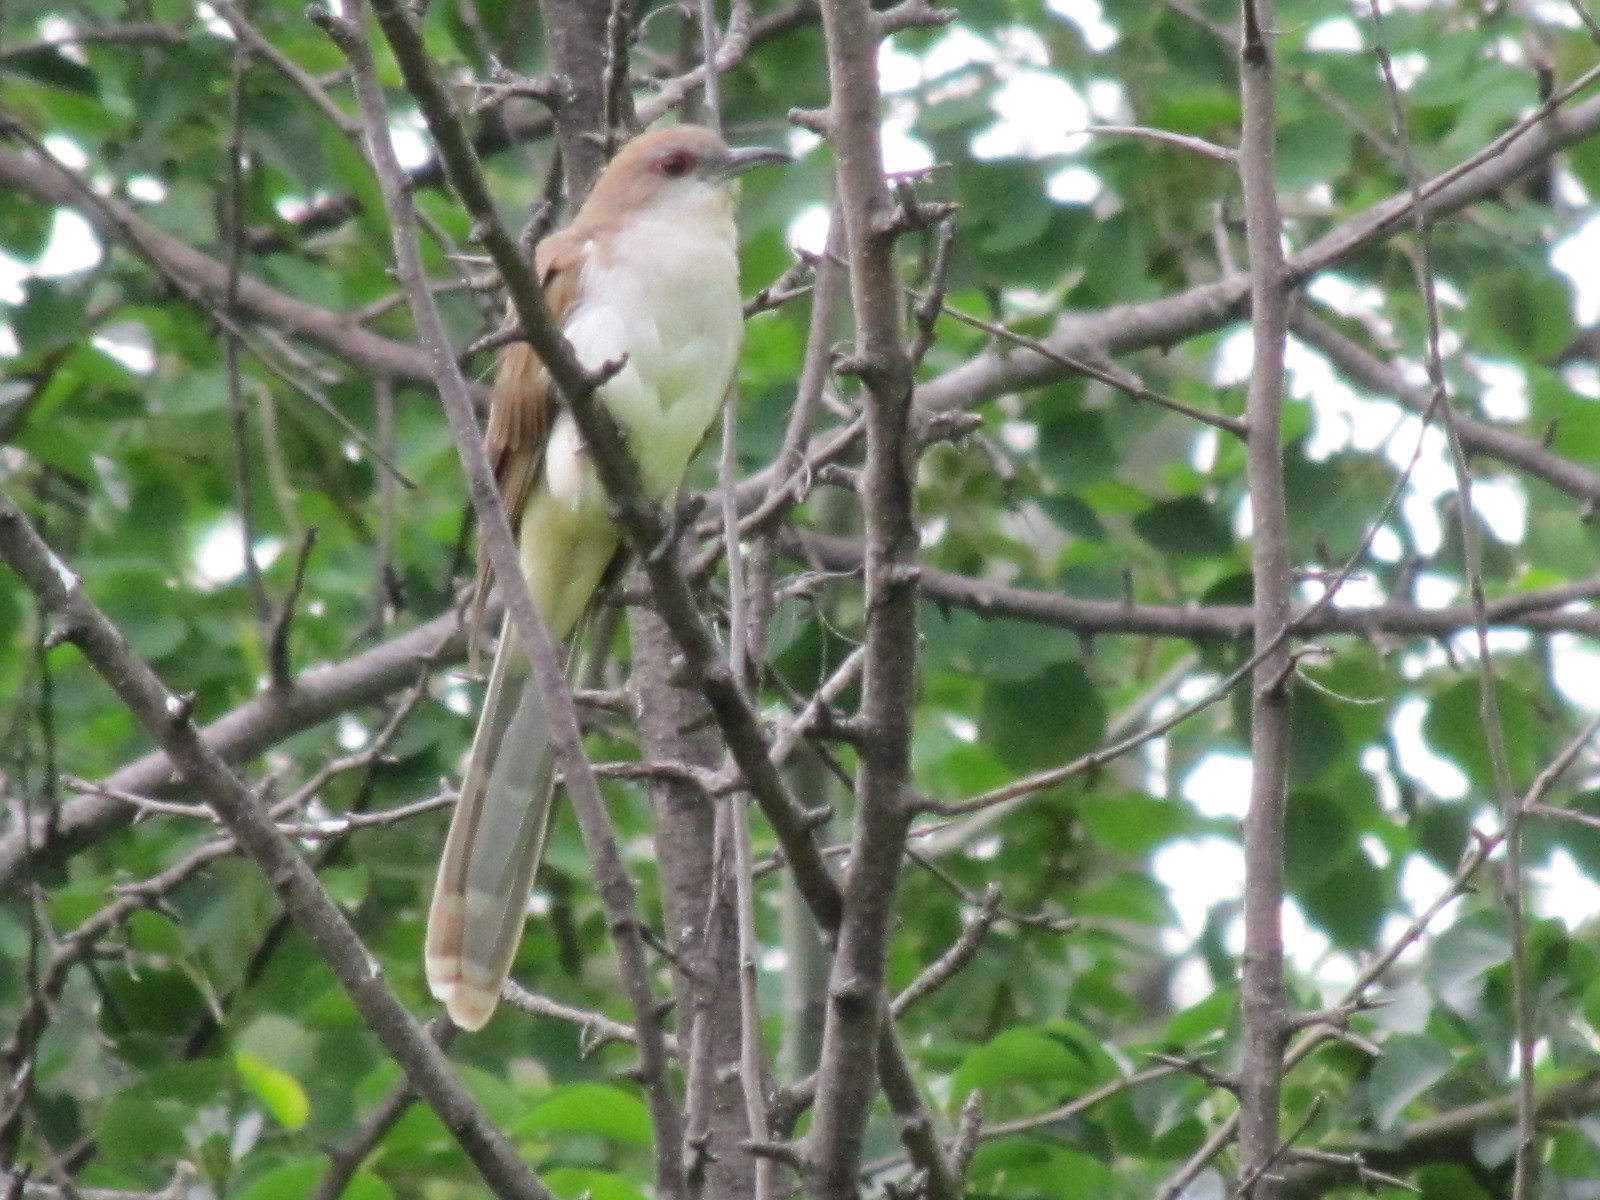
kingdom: Animalia
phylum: Chordata
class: Aves
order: Cuculiformes
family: Cuculidae
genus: Coccyzus
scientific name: Coccyzus erythropthalmus
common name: Black-billed cuckoo
